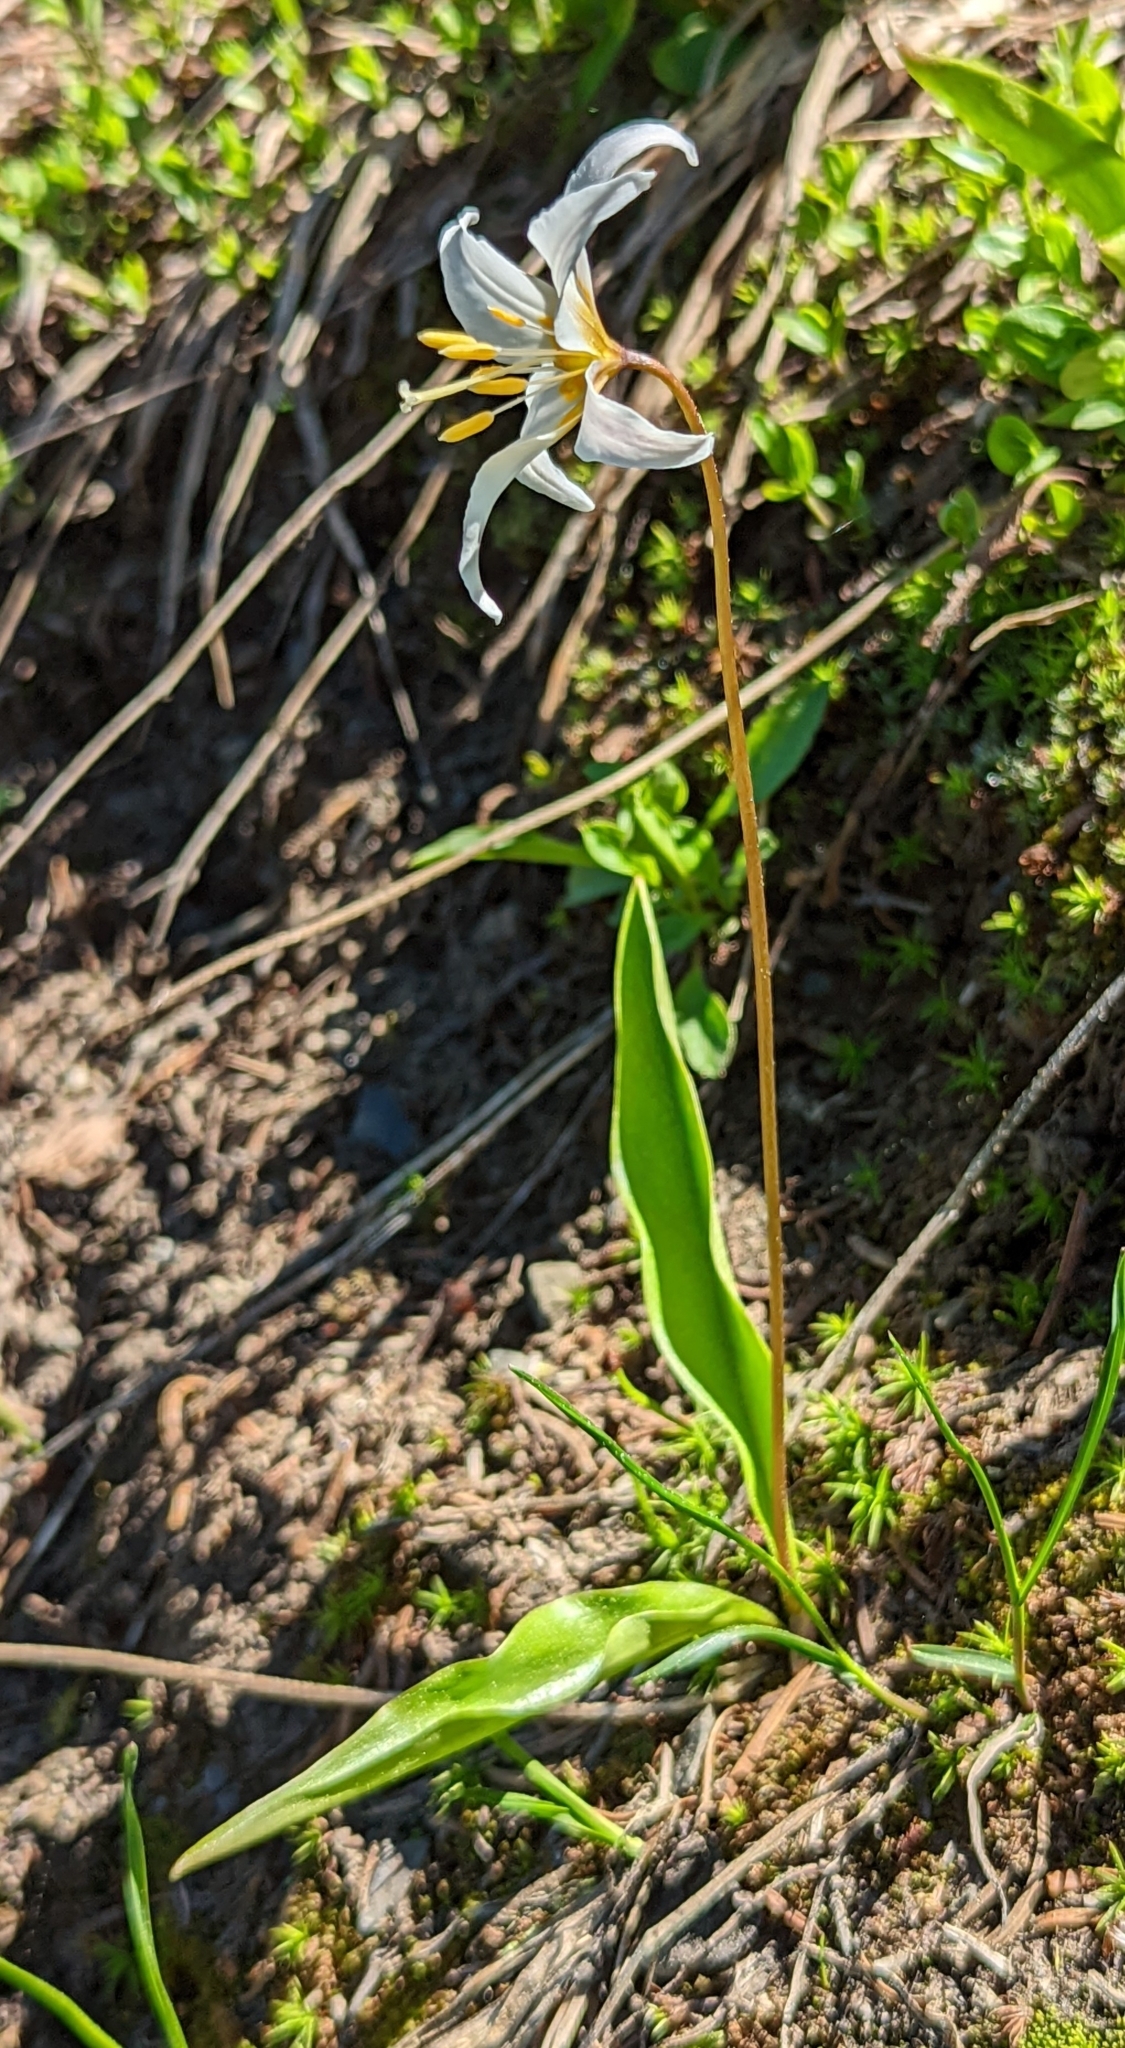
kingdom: Plantae
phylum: Tracheophyta
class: Liliopsida
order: Liliales
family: Liliaceae
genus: Erythronium
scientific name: Erythronium montanum
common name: Avalanche lily
